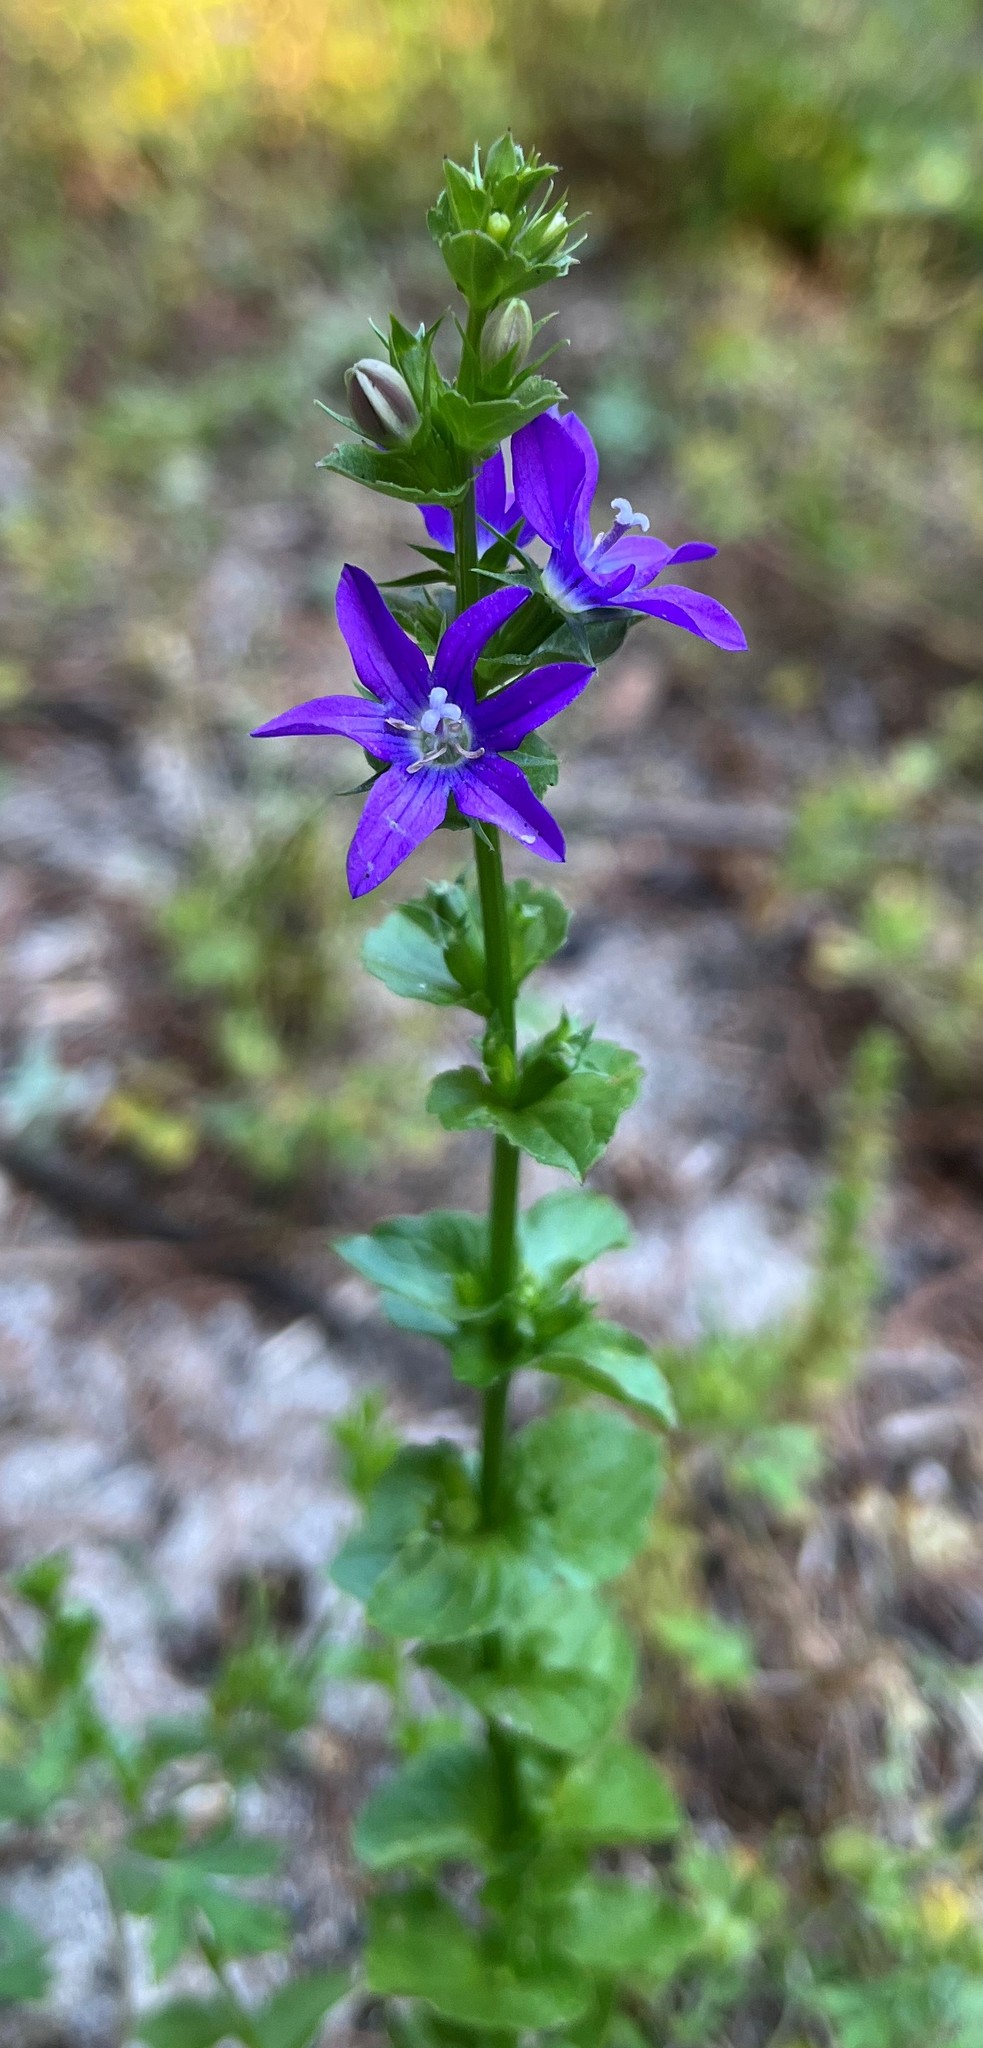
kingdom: Plantae
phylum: Tracheophyta
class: Magnoliopsida
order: Asterales
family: Campanulaceae
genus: Triodanis
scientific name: Triodanis perfoliata
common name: Clasping venus' looking-glass
